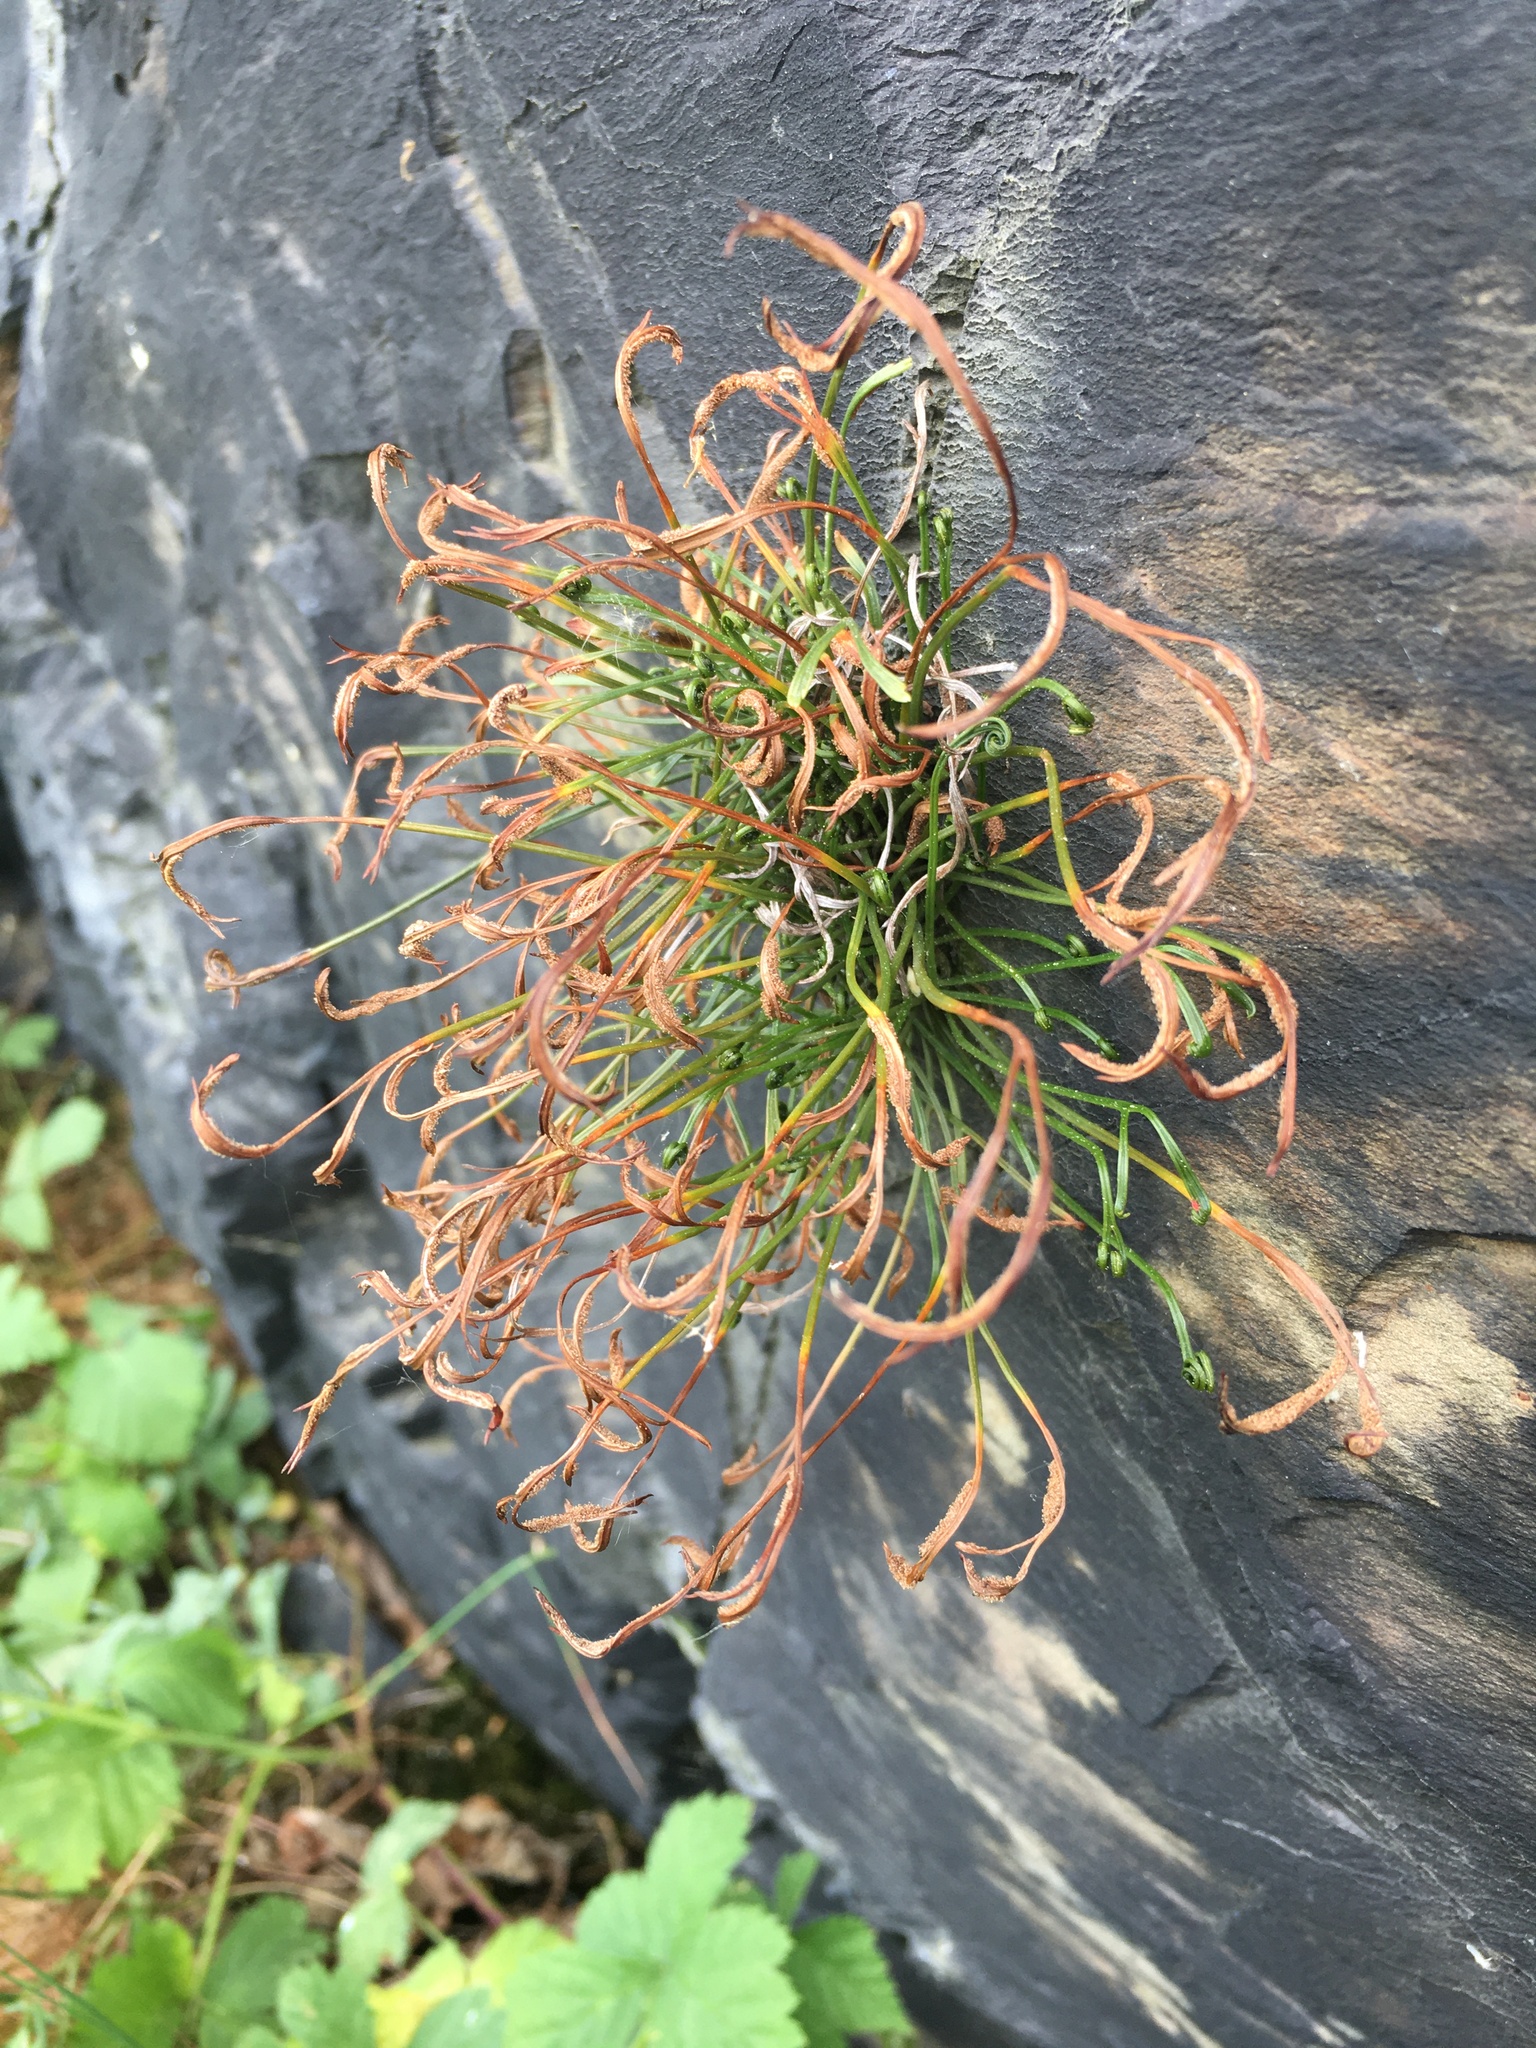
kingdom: Plantae
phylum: Tracheophyta
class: Polypodiopsida
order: Polypodiales
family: Aspleniaceae
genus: Asplenium
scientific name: Asplenium septentrionale
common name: Forked spleenwort
